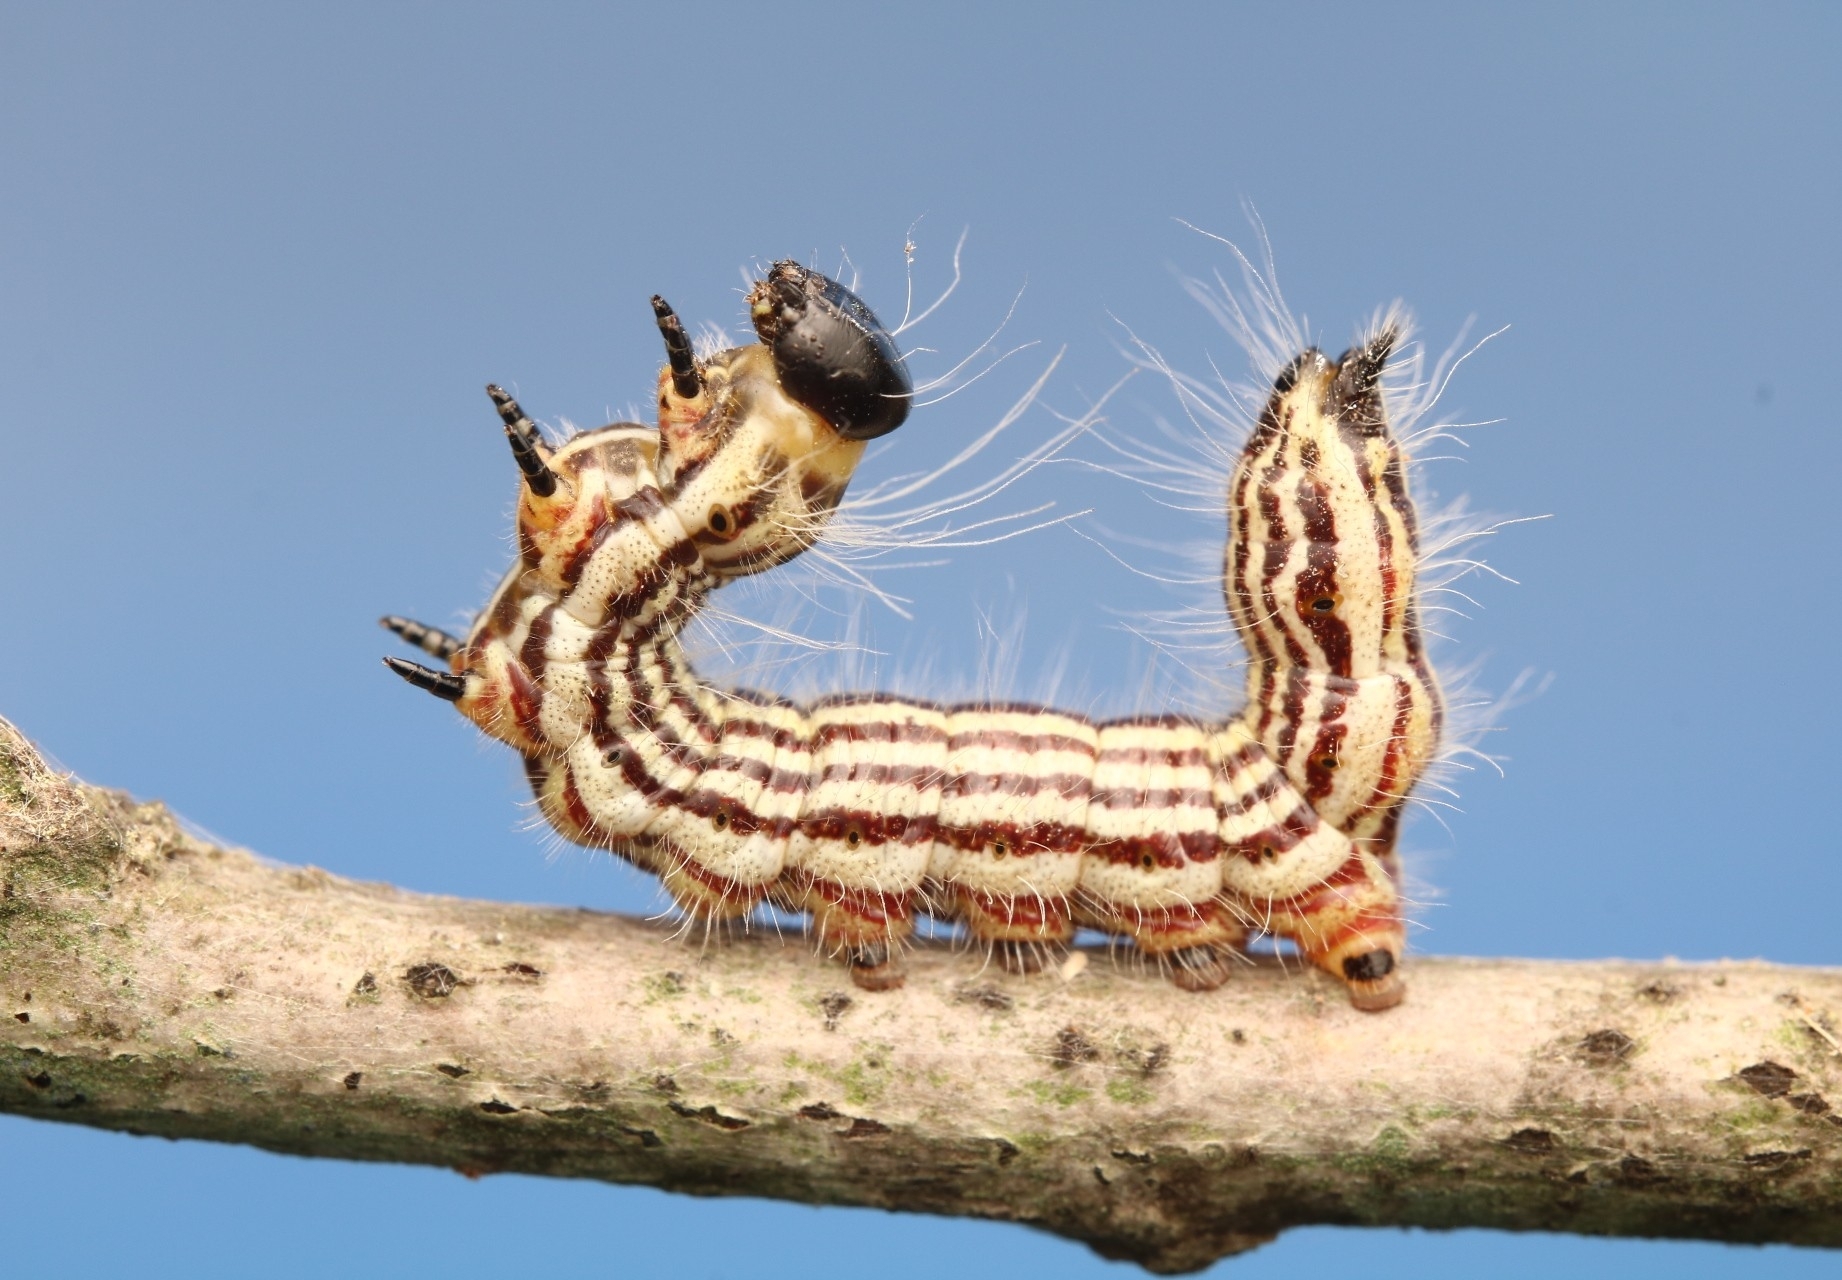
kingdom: Animalia
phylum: Arthropoda
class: Insecta
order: Lepidoptera
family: Notodontidae
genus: Datana
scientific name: Datana contracta
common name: Contracted datana
